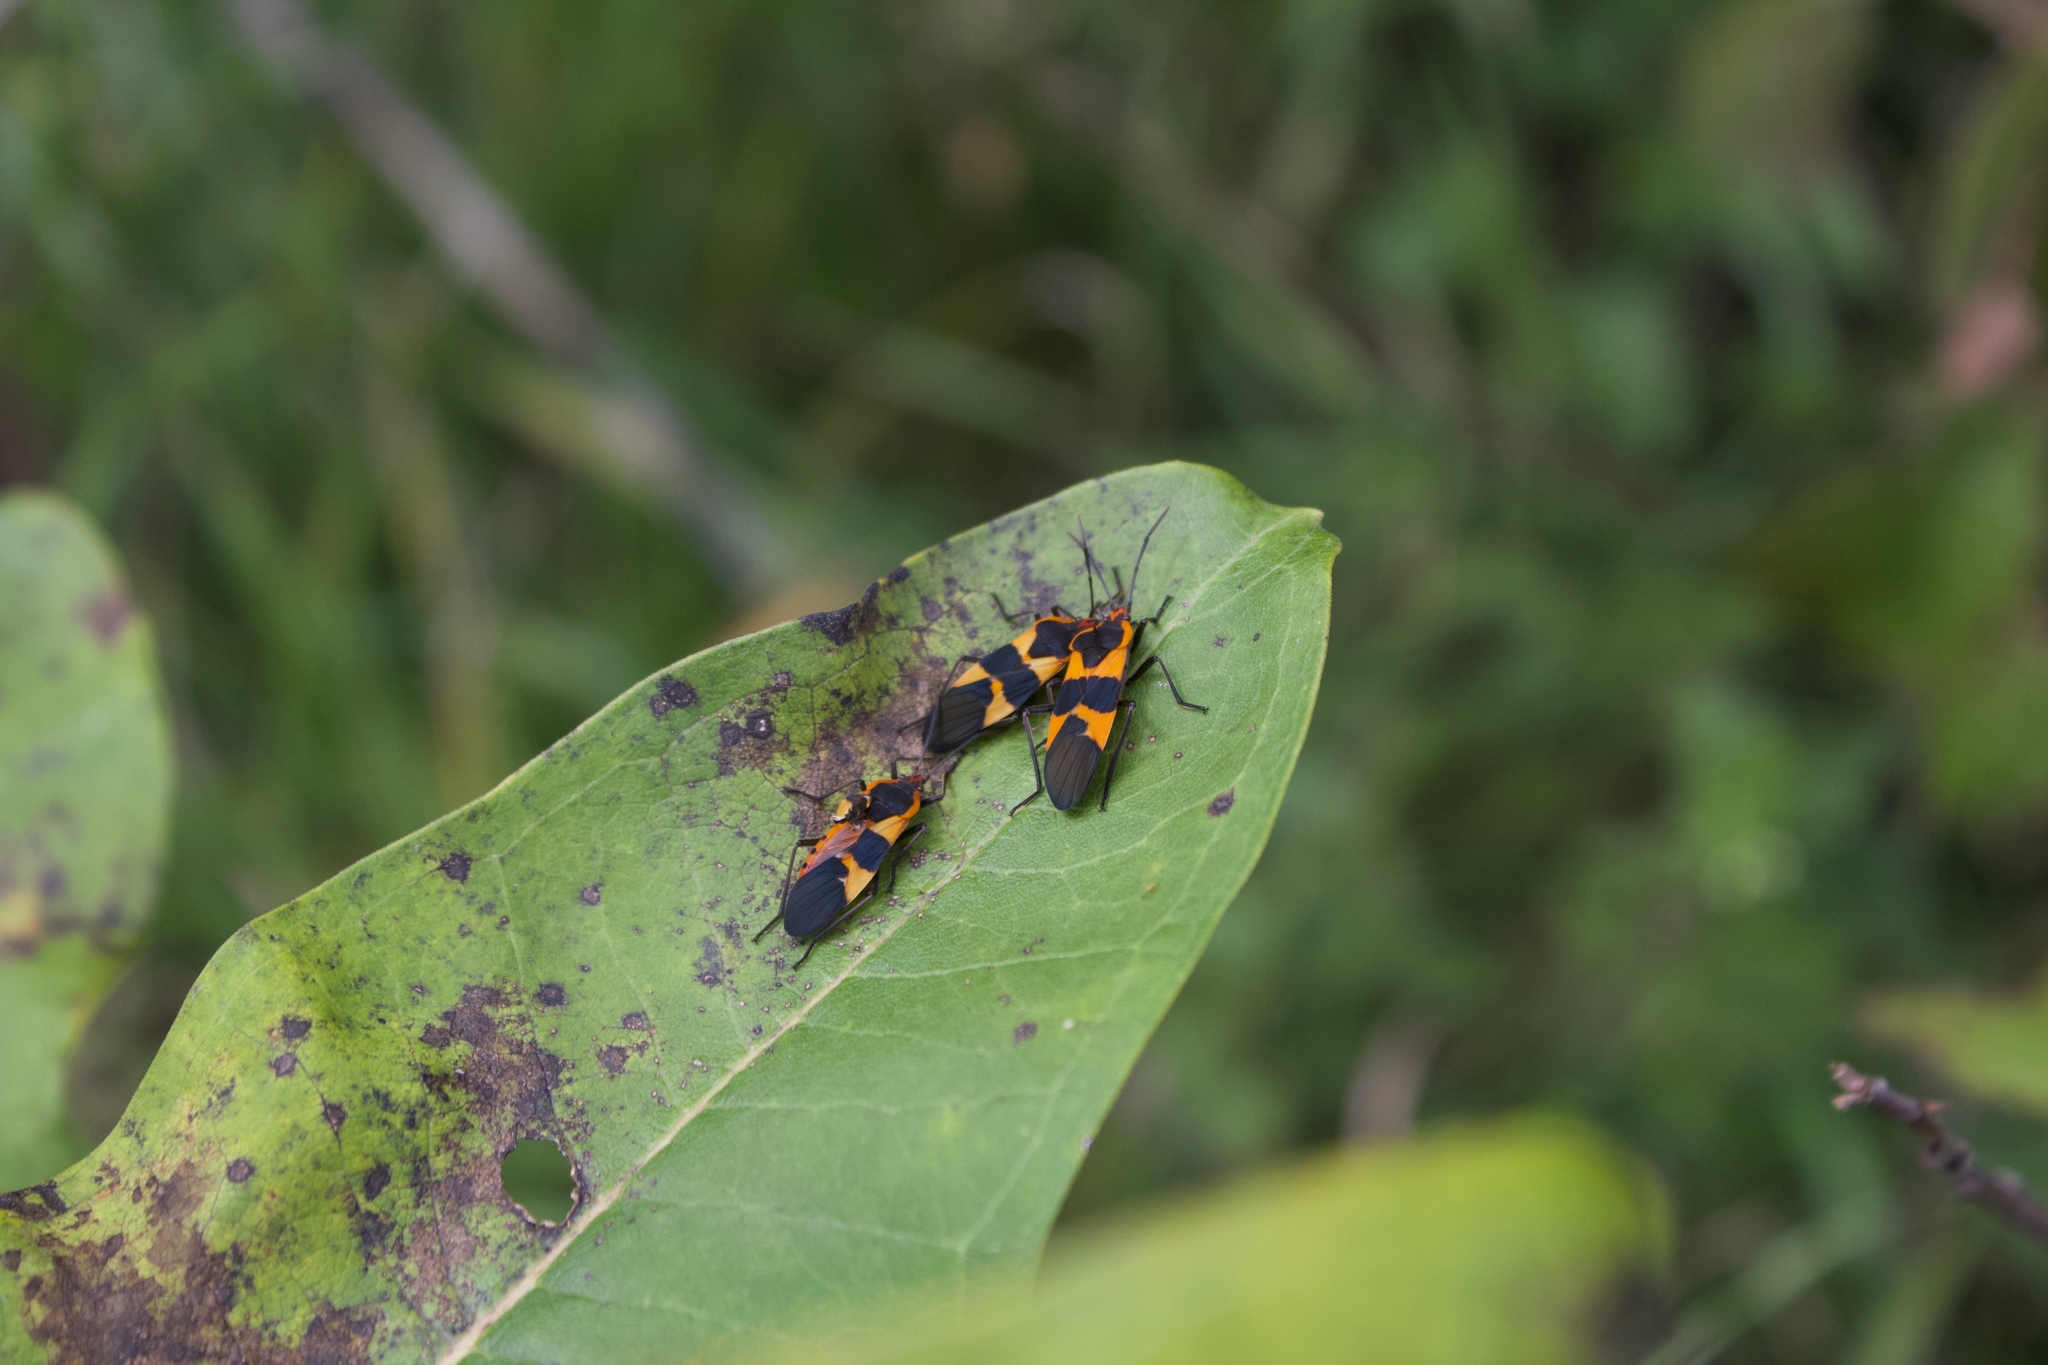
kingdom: Animalia
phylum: Arthropoda
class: Insecta
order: Hemiptera
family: Lygaeidae
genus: Oncopeltus
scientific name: Oncopeltus fasciatus
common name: Large milkweed bug
